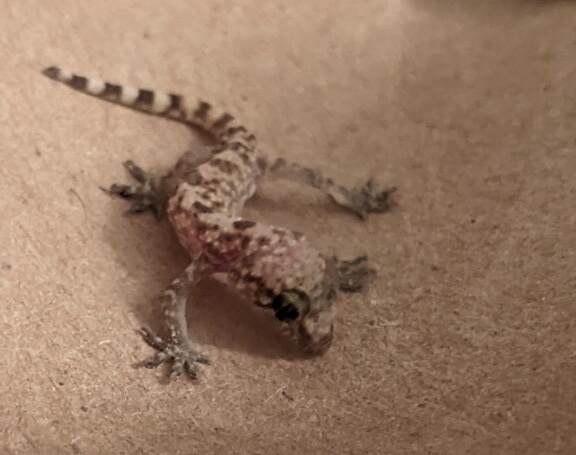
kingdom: Animalia
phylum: Chordata
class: Squamata
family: Gekkonidae
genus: Hemidactylus
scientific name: Hemidactylus turcicus
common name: Turkish gecko
